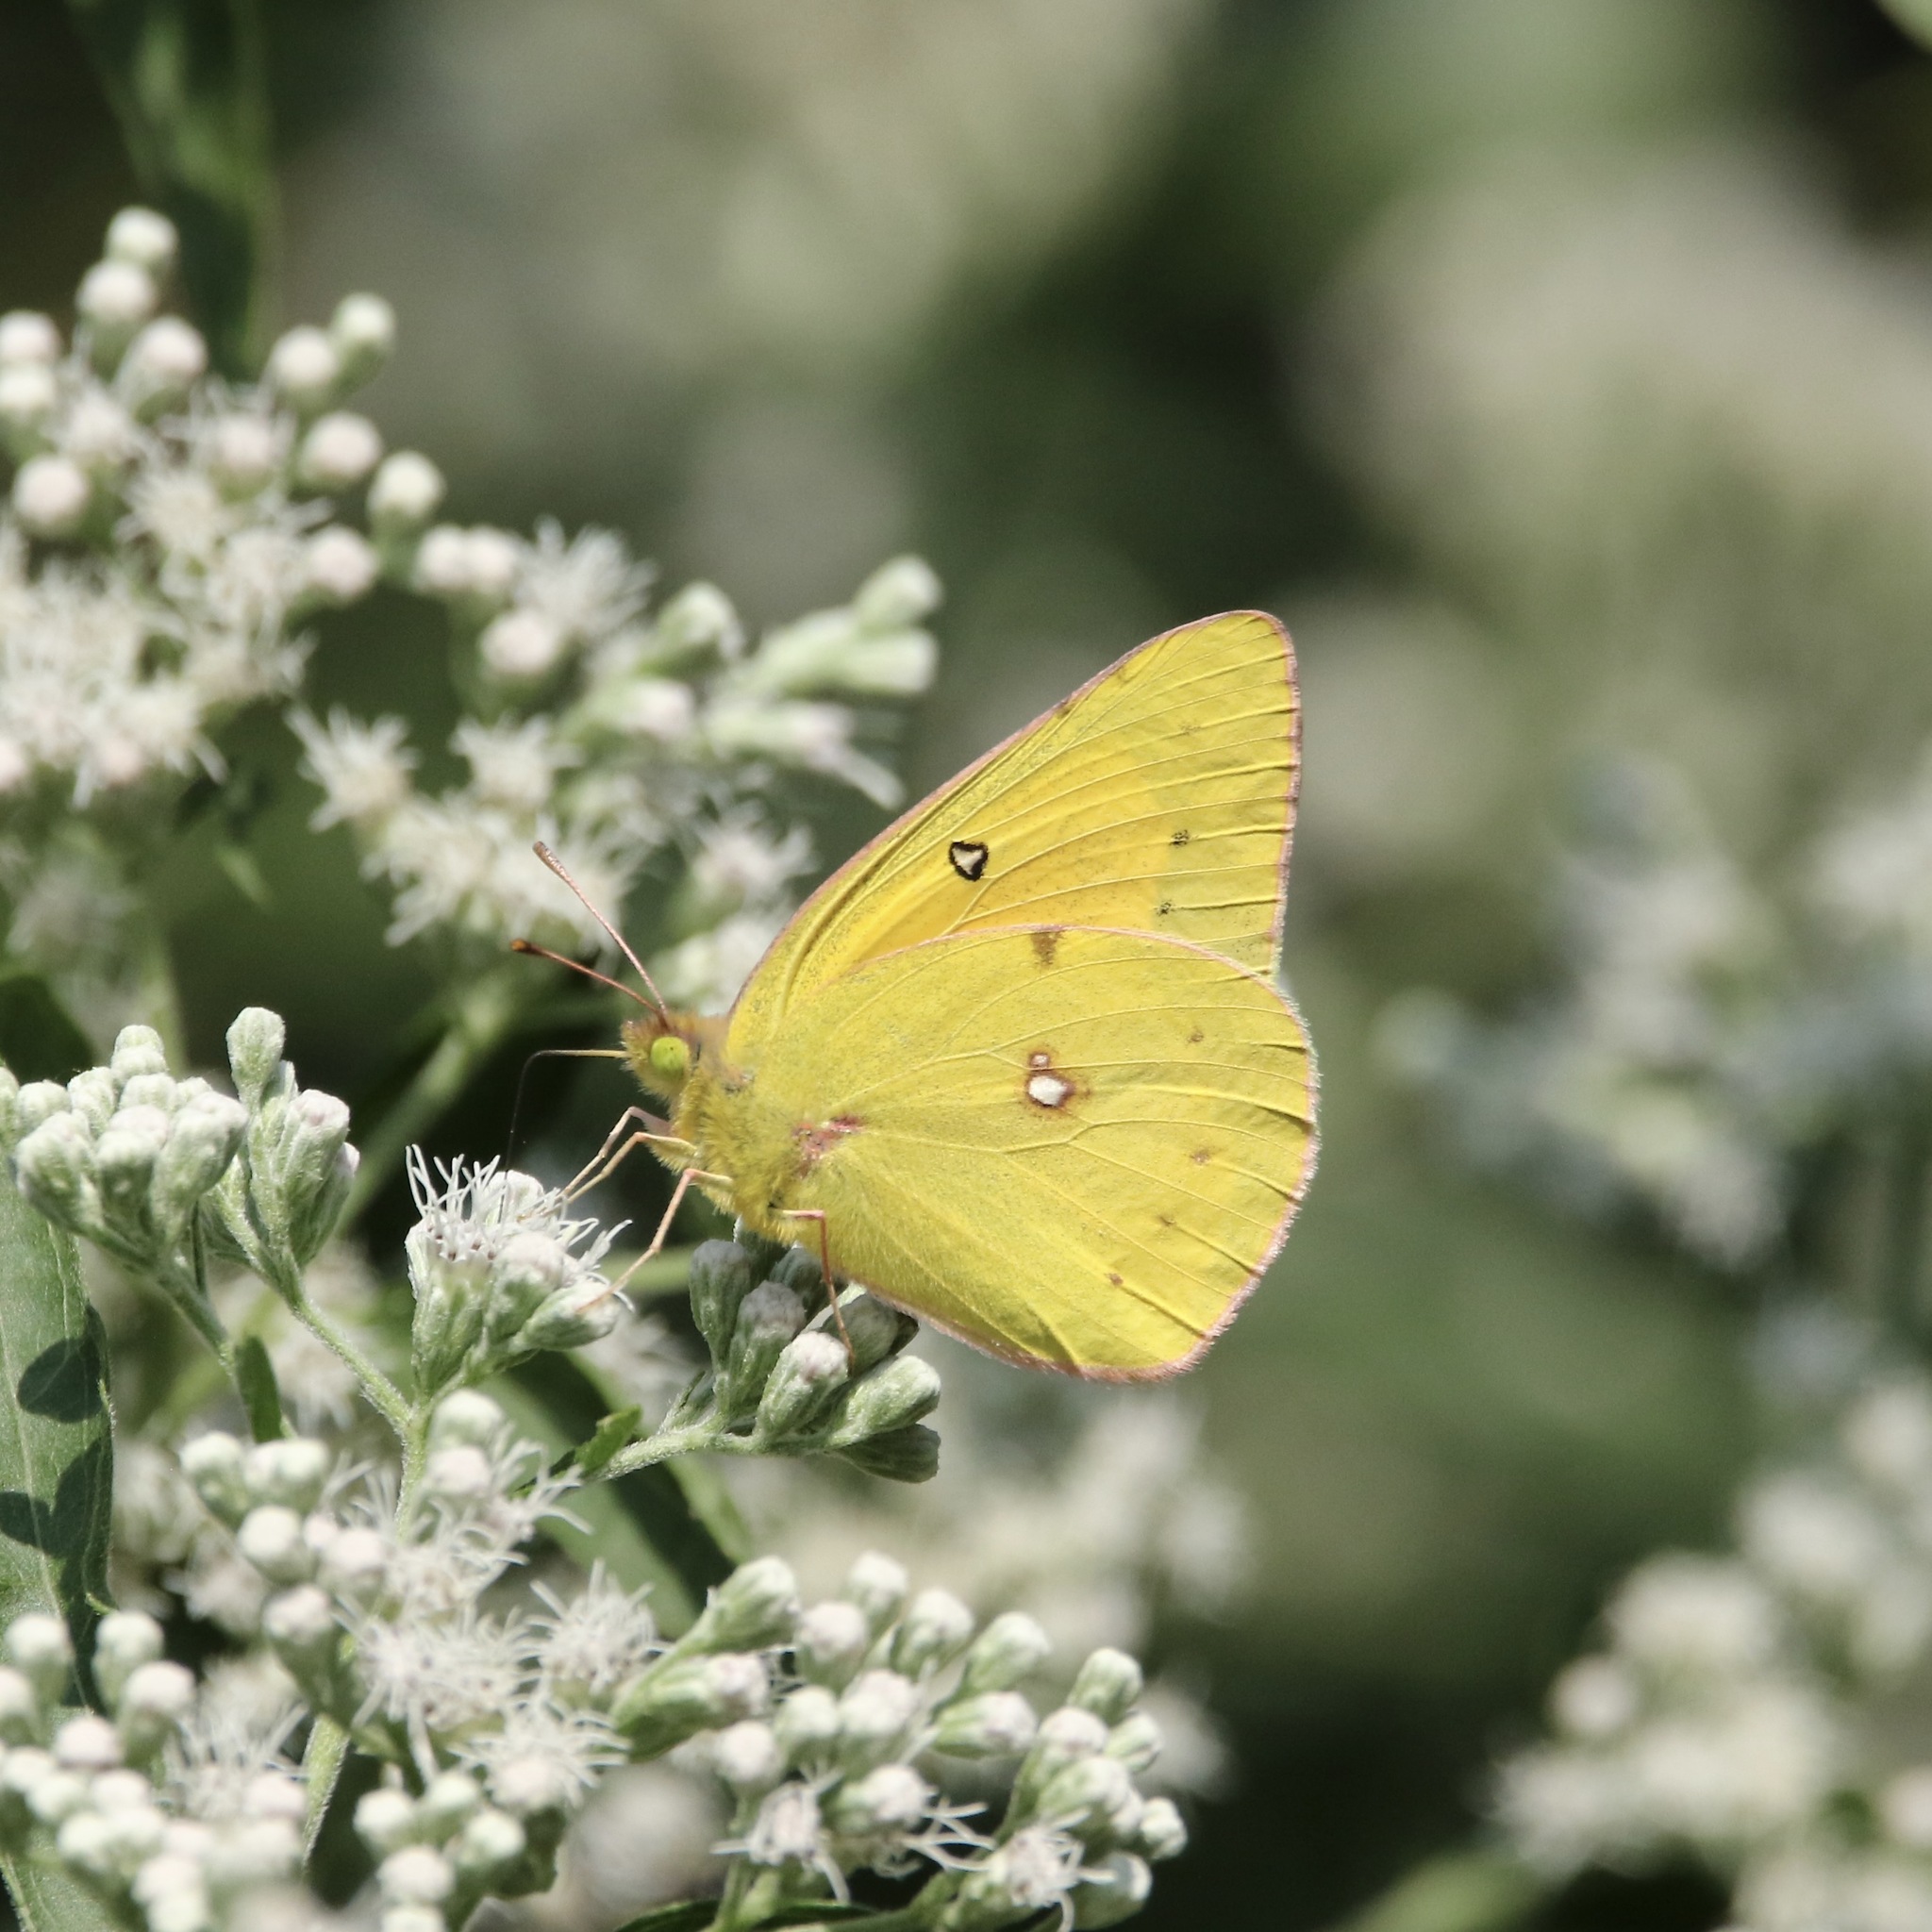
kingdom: Animalia
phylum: Arthropoda
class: Insecta
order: Lepidoptera
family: Pieridae
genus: Colias
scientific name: Colias eurytheme
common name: Alfalfa butterfly
